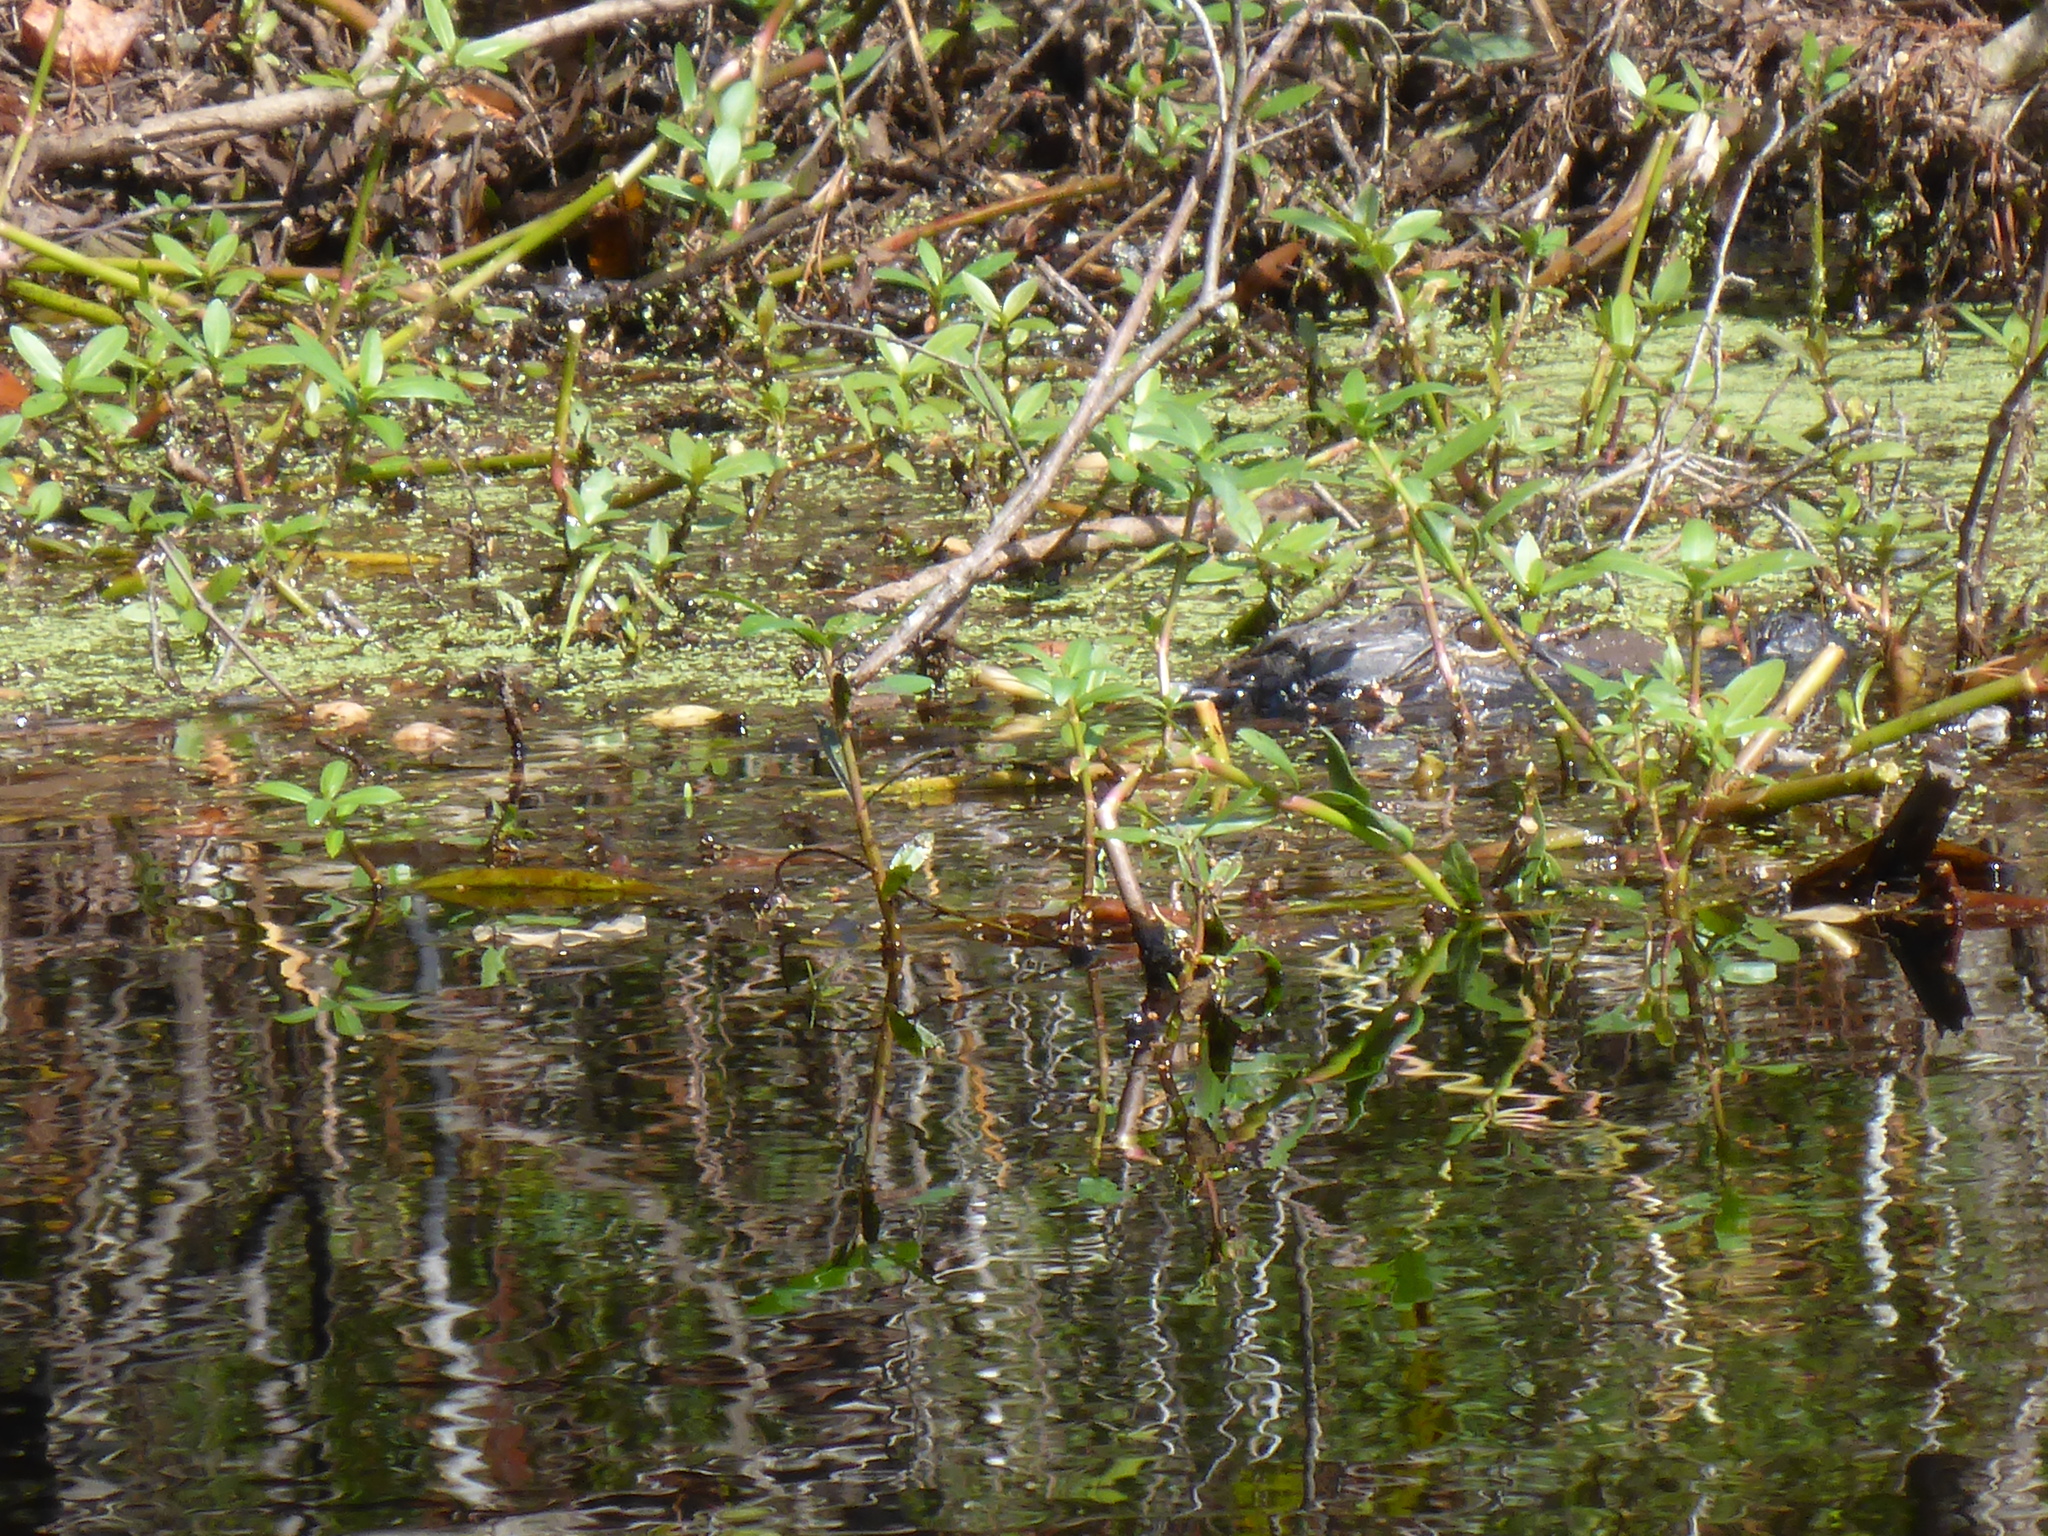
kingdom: Animalia
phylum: Chordata
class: Crocodylia
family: Alligatoridae
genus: Alligator
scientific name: Alligator mississippiensis
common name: American alligator
